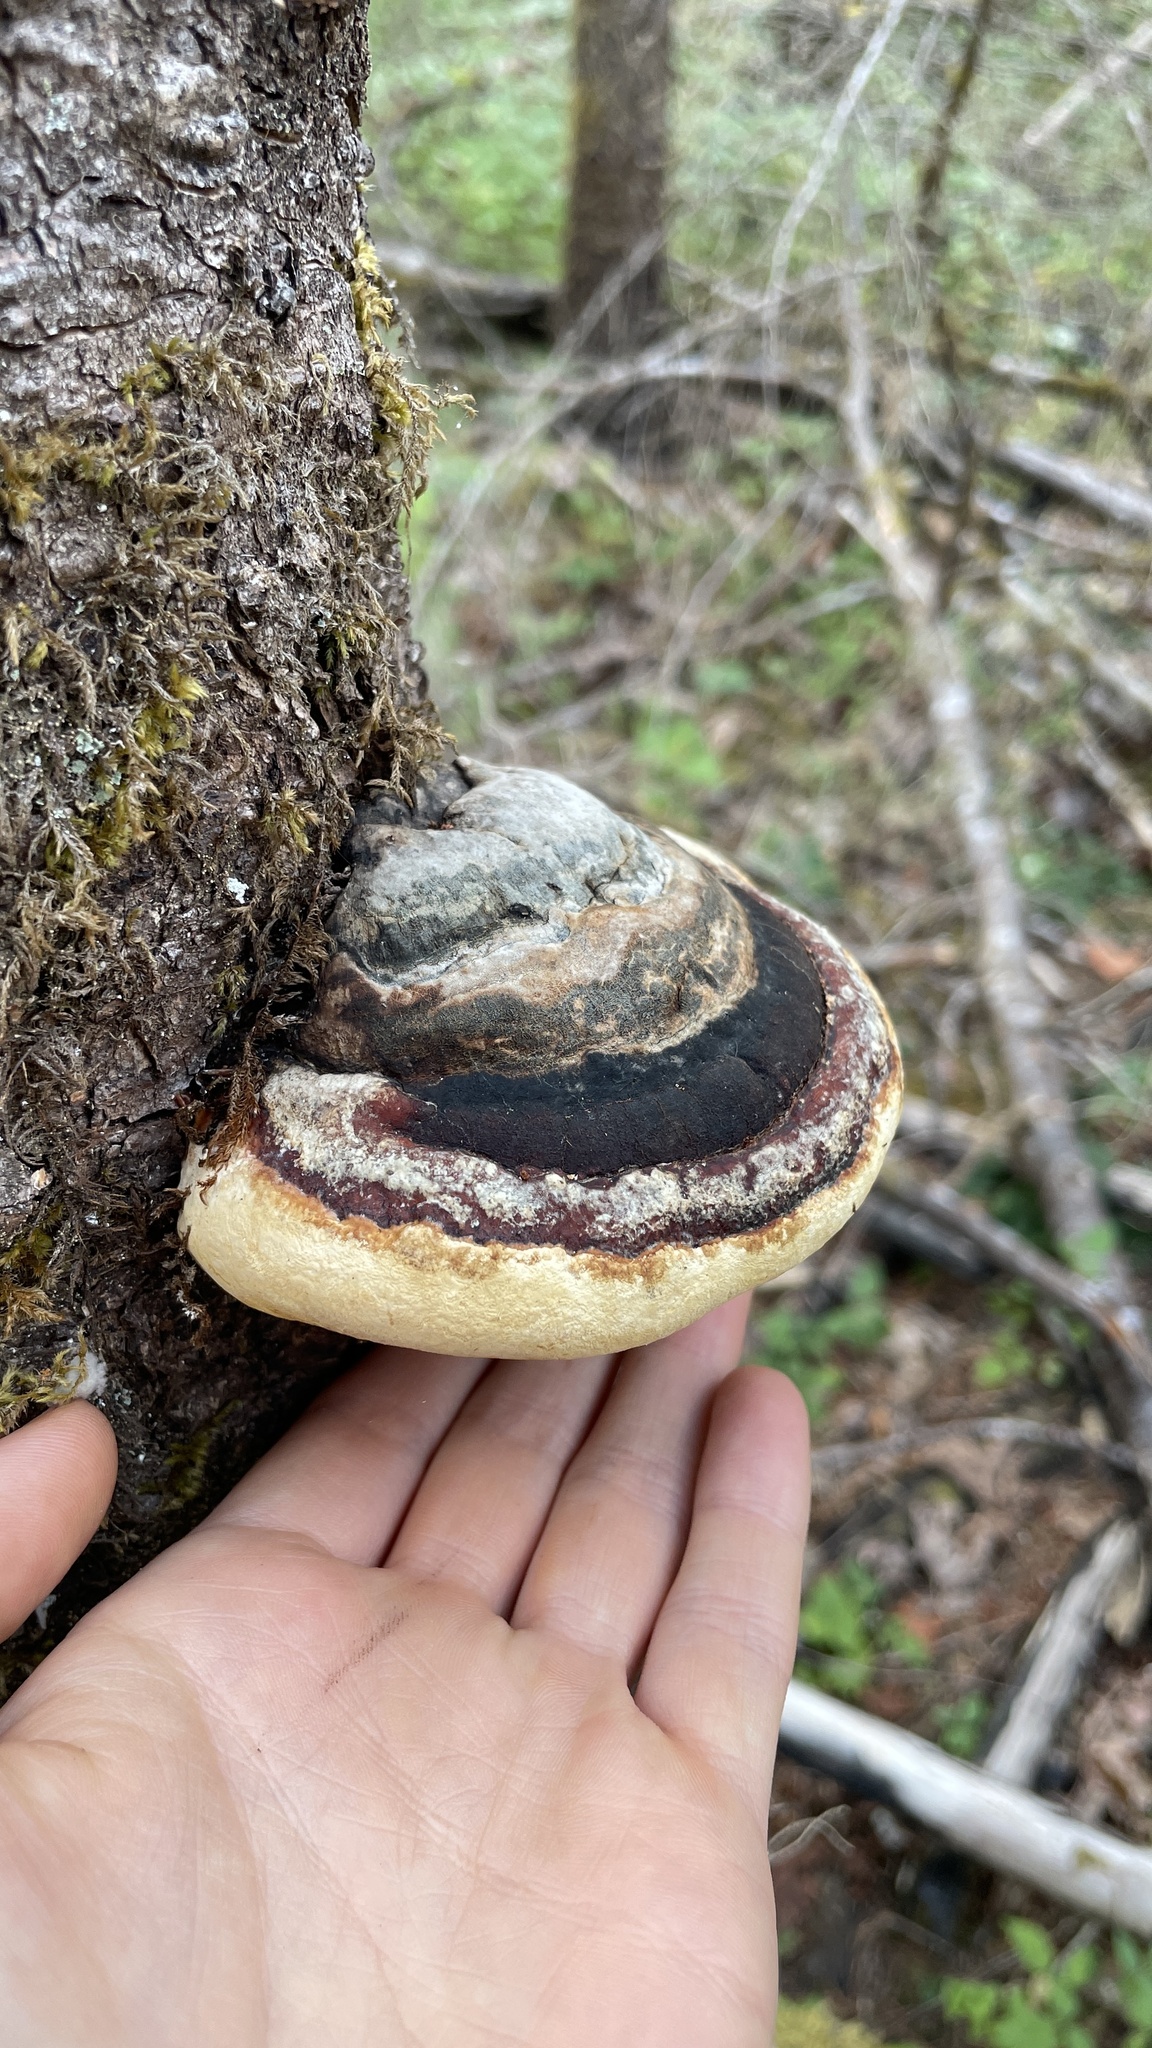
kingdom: Fungi
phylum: Basidiomycota
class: Agaricomycetes
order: Polyporales
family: Fomitopsidaceae
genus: Fomitopsis
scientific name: Fomitopsis mounceae
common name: Northern red belt
